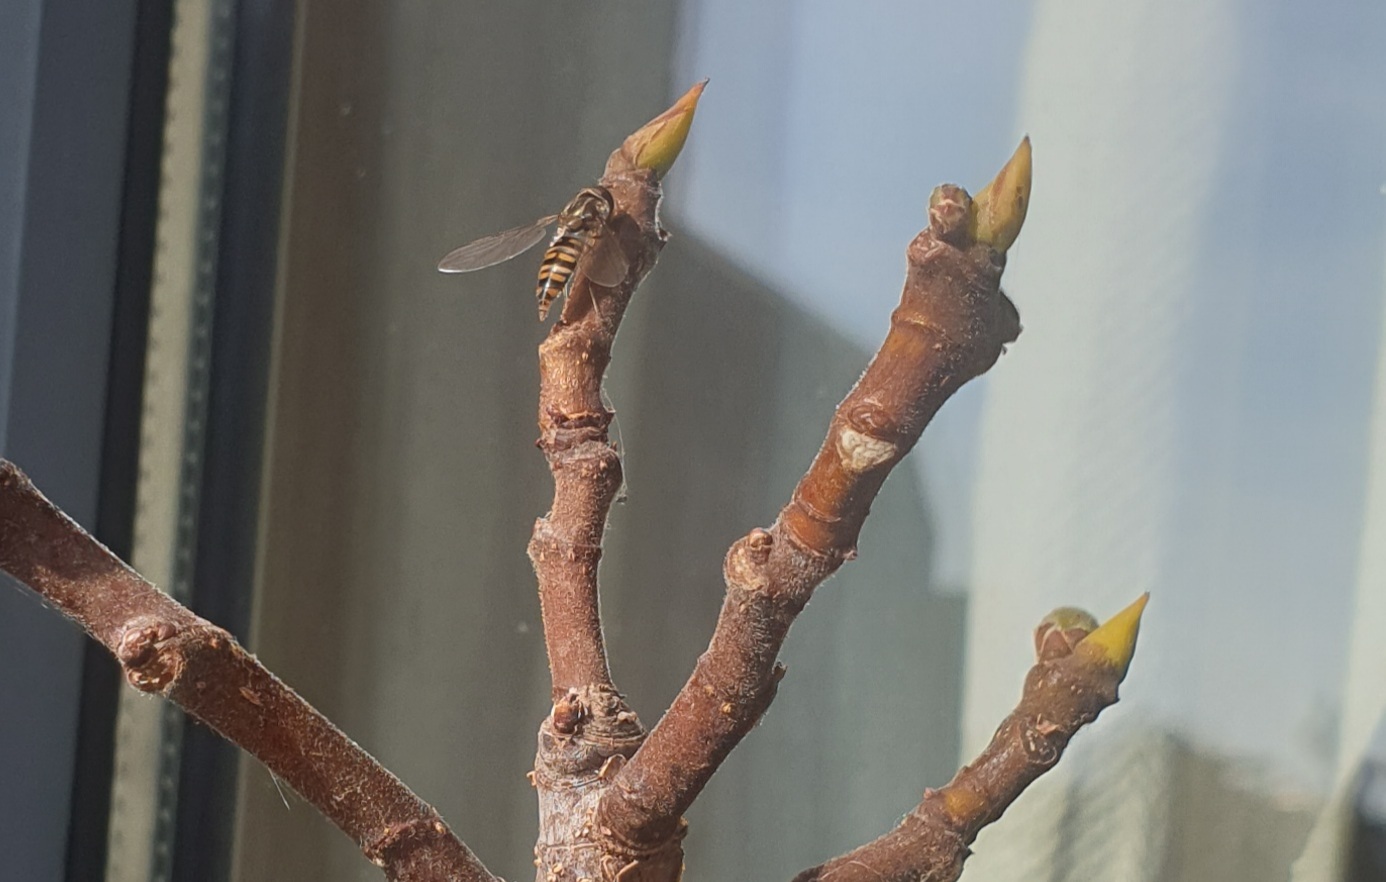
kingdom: Animalia
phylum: Arthropoda
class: Insecta
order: Diptera
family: Syrphidae
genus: Episyrphus
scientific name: Episyrphus balteatus
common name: Marmalade hoverfly
